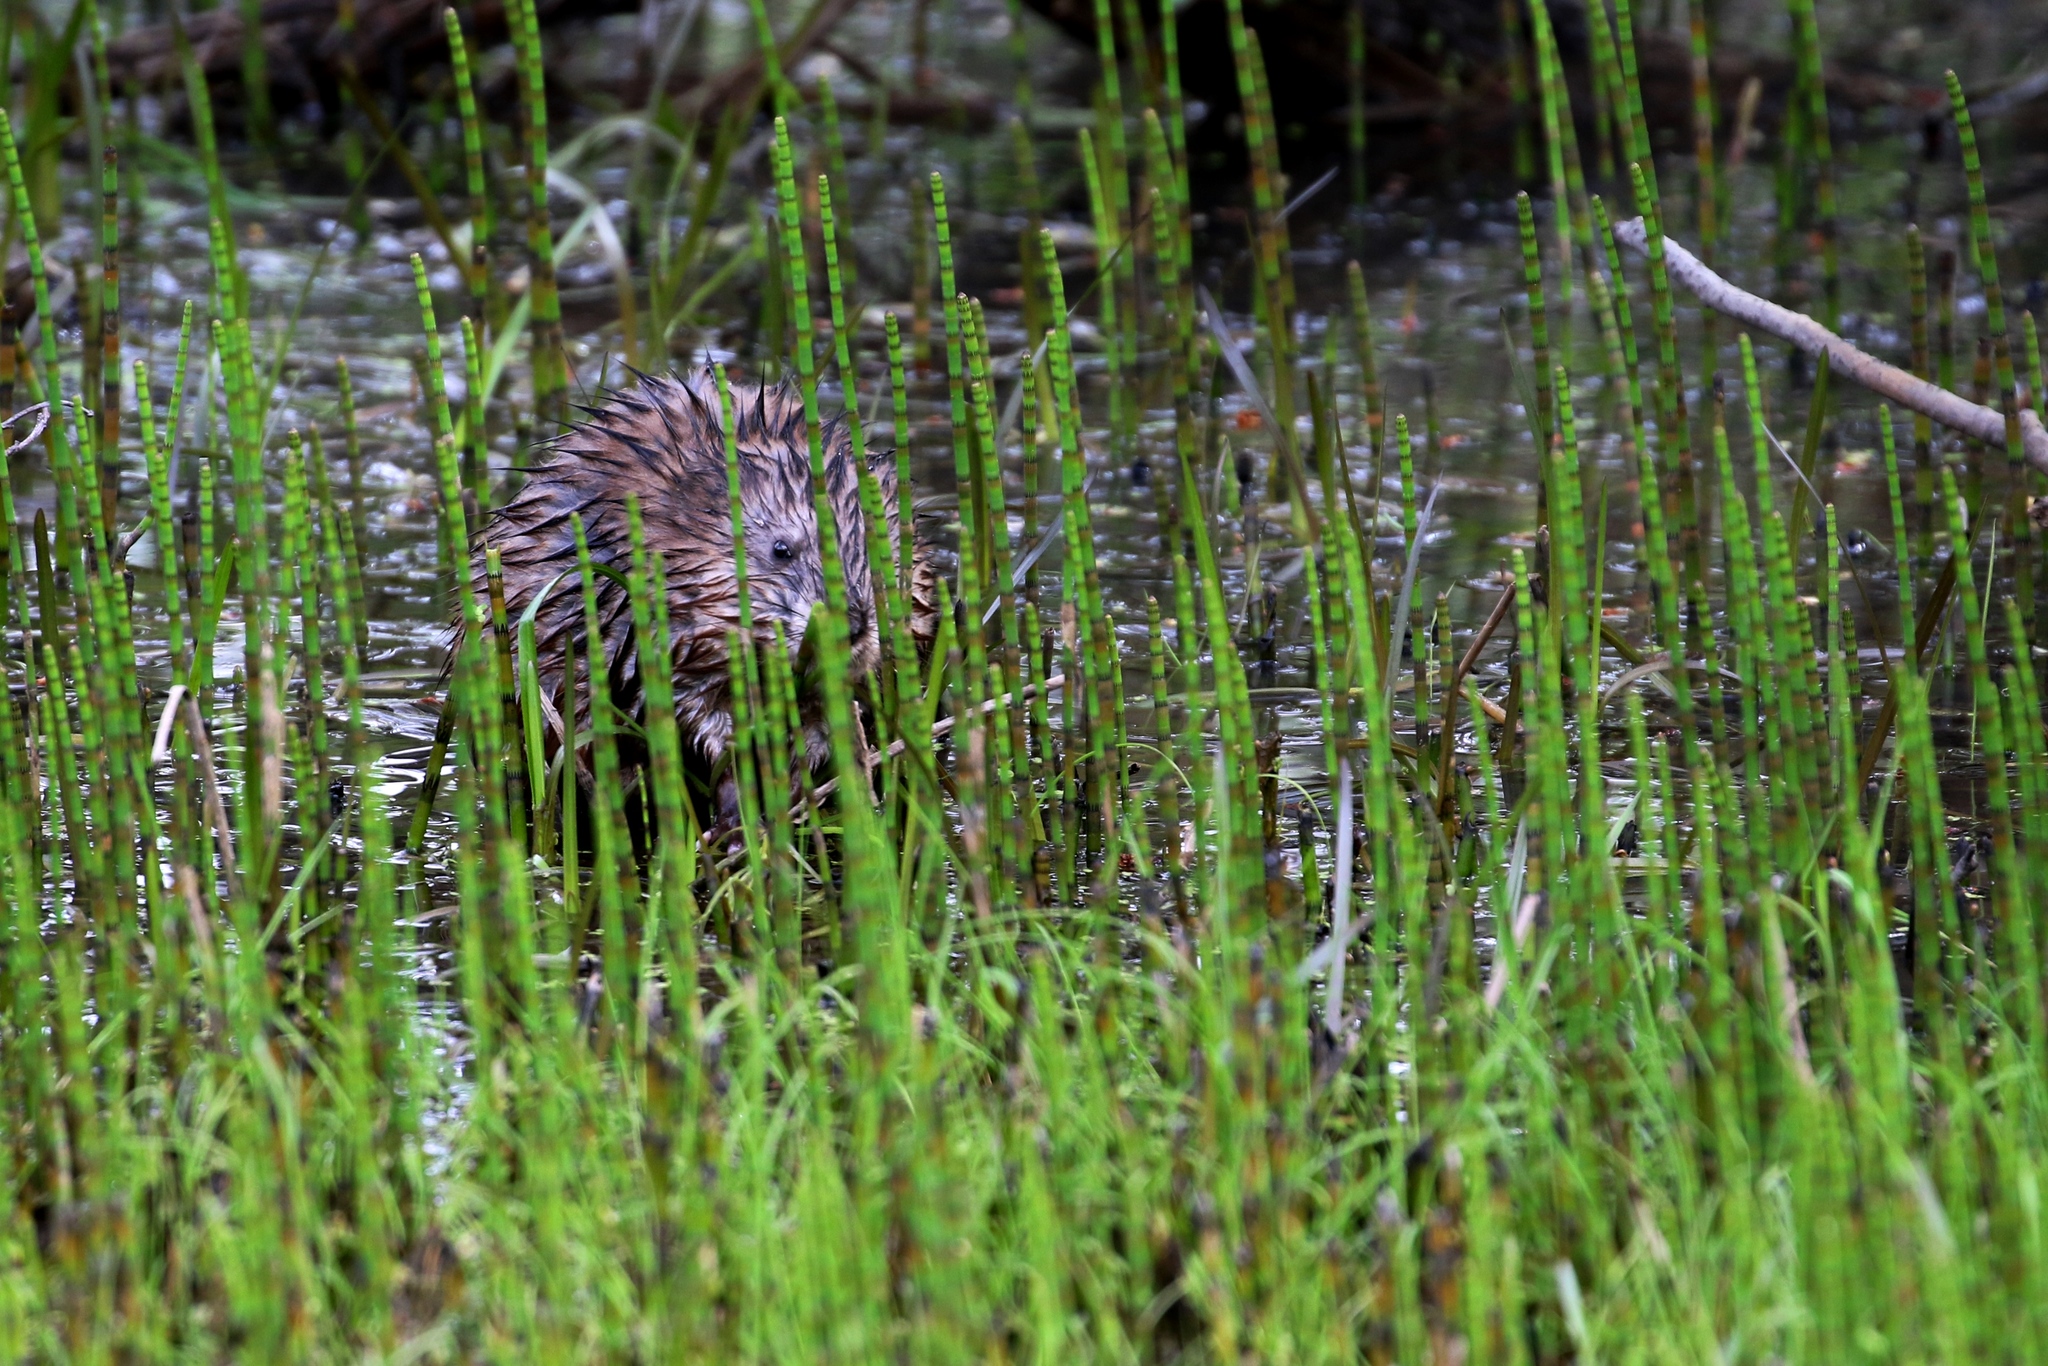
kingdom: Animalia
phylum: Chordata
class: Mammalia
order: Rodentia
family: Cricetidae
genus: Ondatra
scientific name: Ondatra zibethicus
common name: Muskrat
